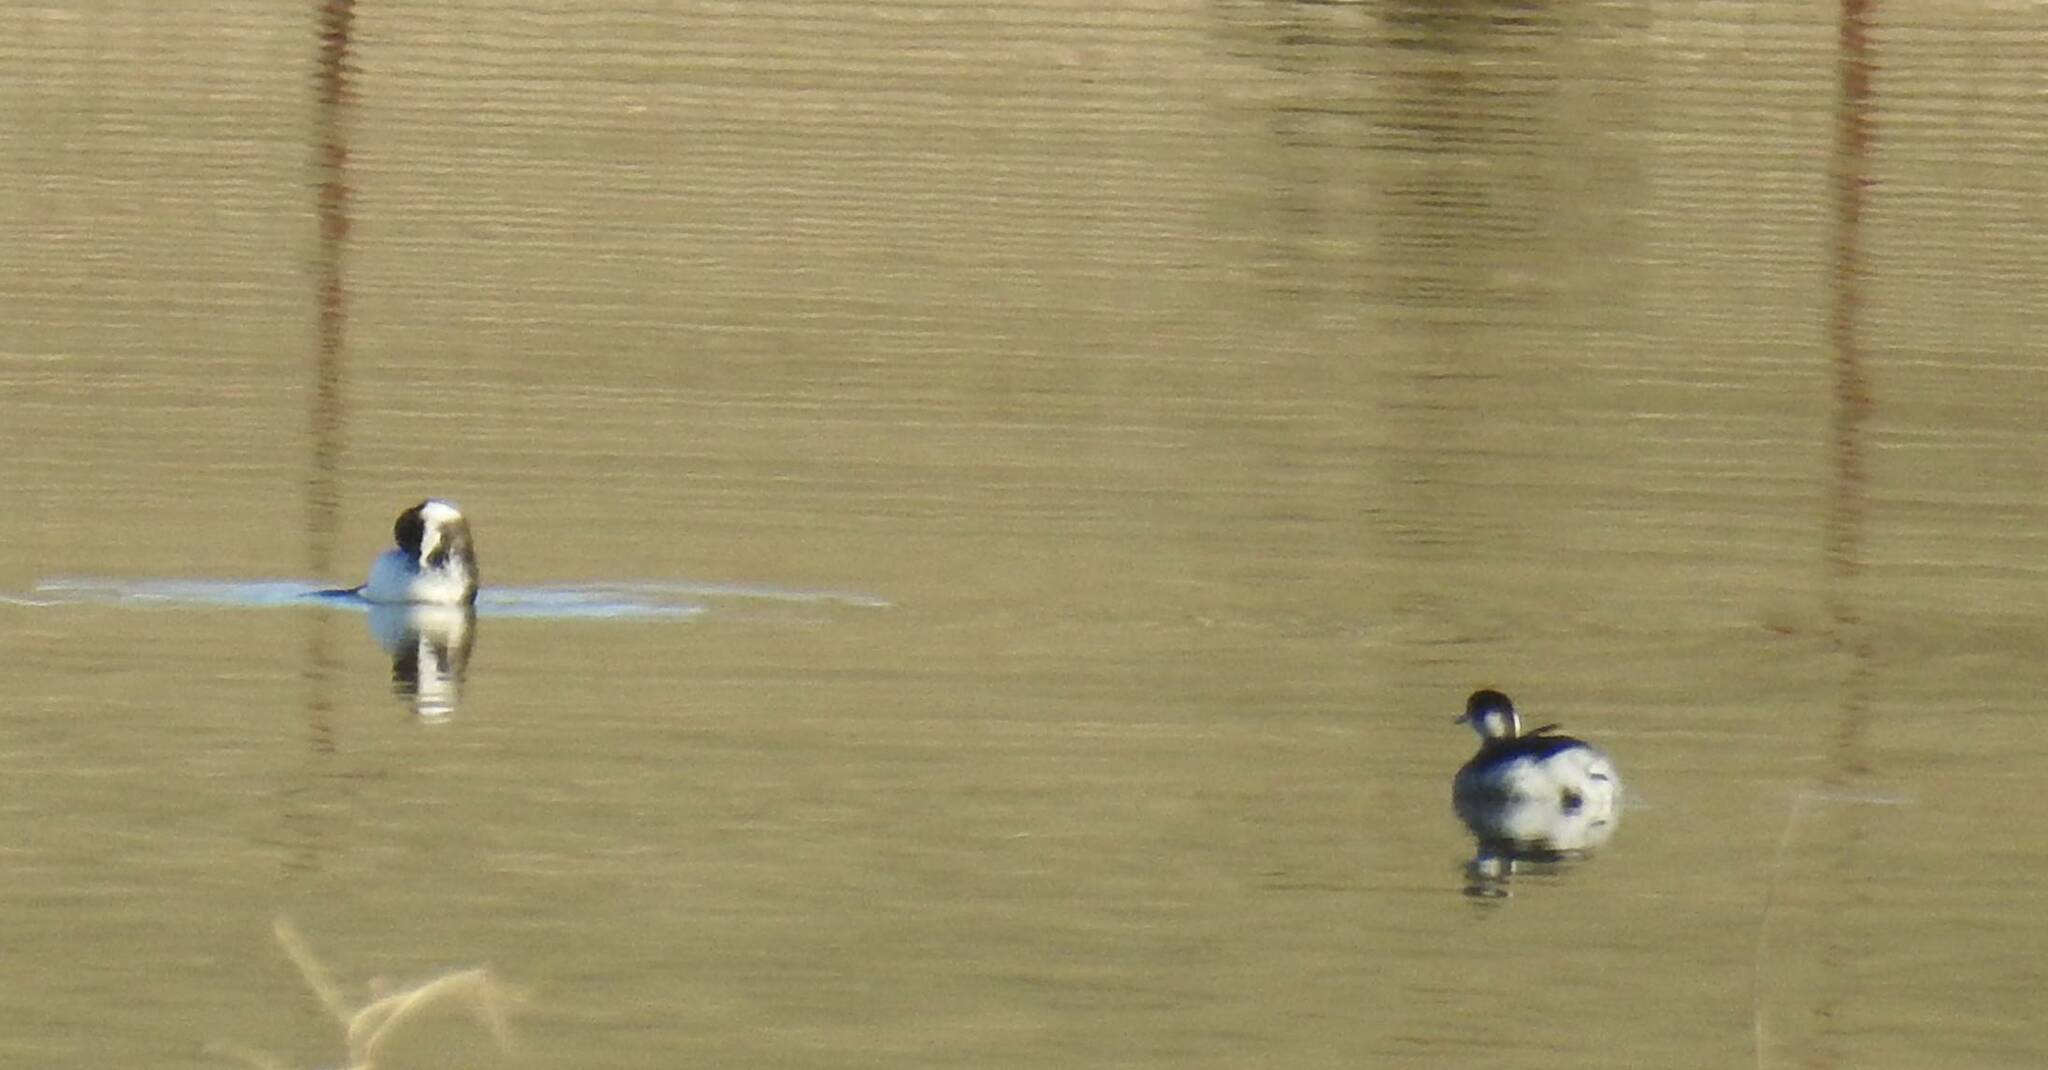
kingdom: Animalia
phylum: Chordata
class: Aves
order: Podicipediformes
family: Podicipedidae
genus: Podiceps
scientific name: Podiceps nigricollis
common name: Black-necked grebe
